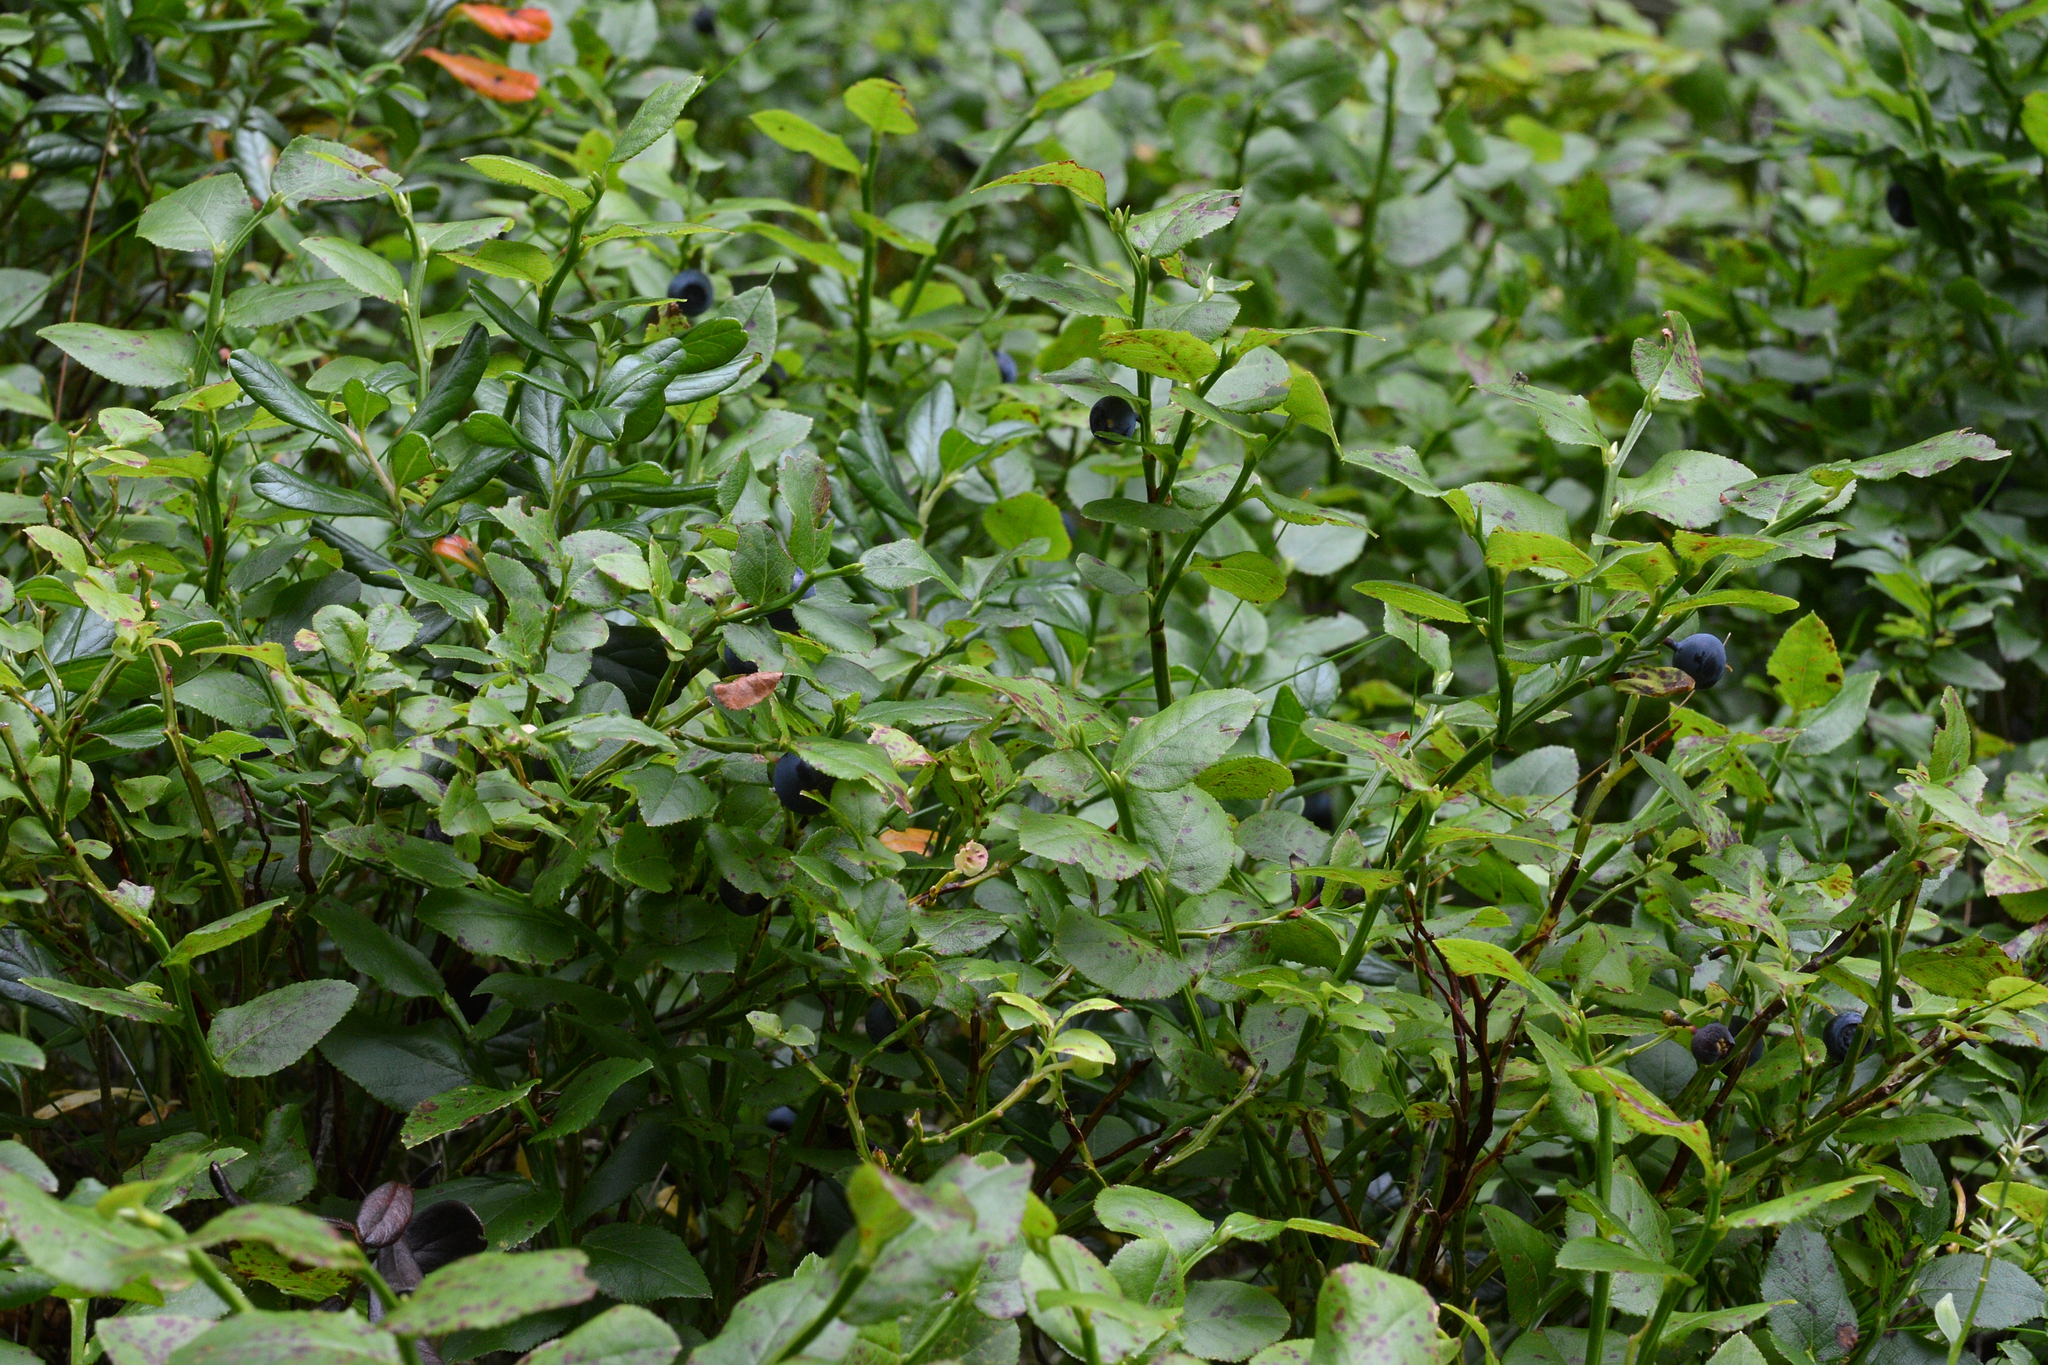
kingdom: Plantae
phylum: Tracheophyta
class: Magnoliopsida
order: Ericales
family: Ericaceae
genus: Vaccinium
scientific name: Vaccinium myrtillus
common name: Bilberry
